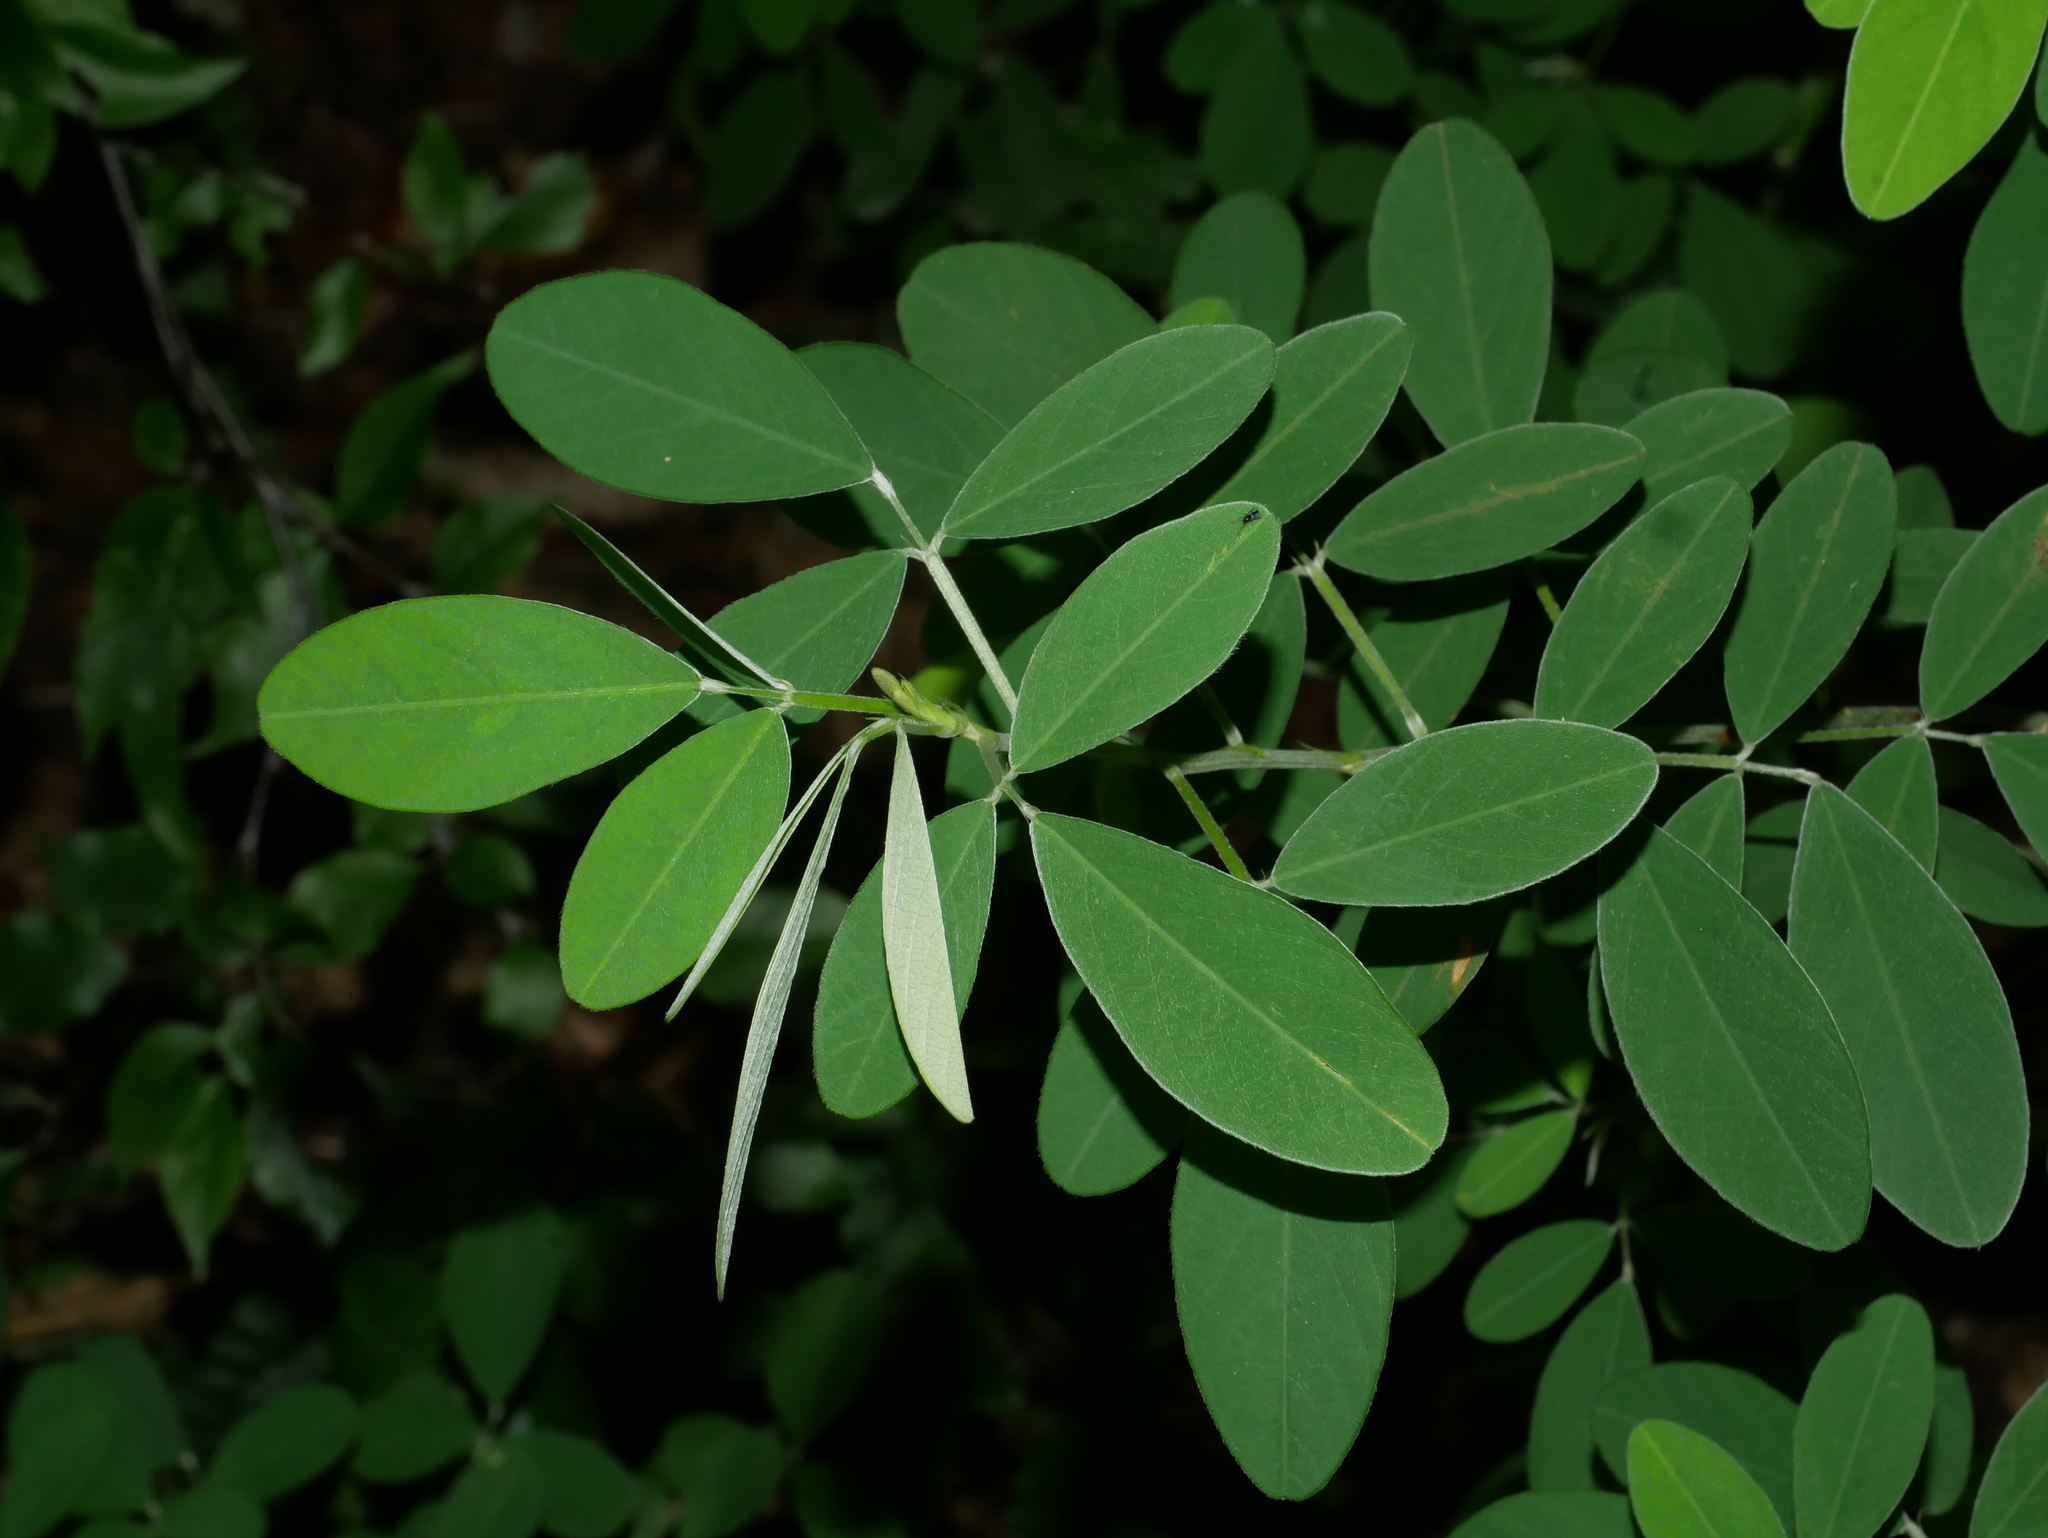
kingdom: Plantae
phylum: Tracheophyta
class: Magnoliopsida
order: Fabales
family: Fabaceae
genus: Grona
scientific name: Grona heterocarpos
